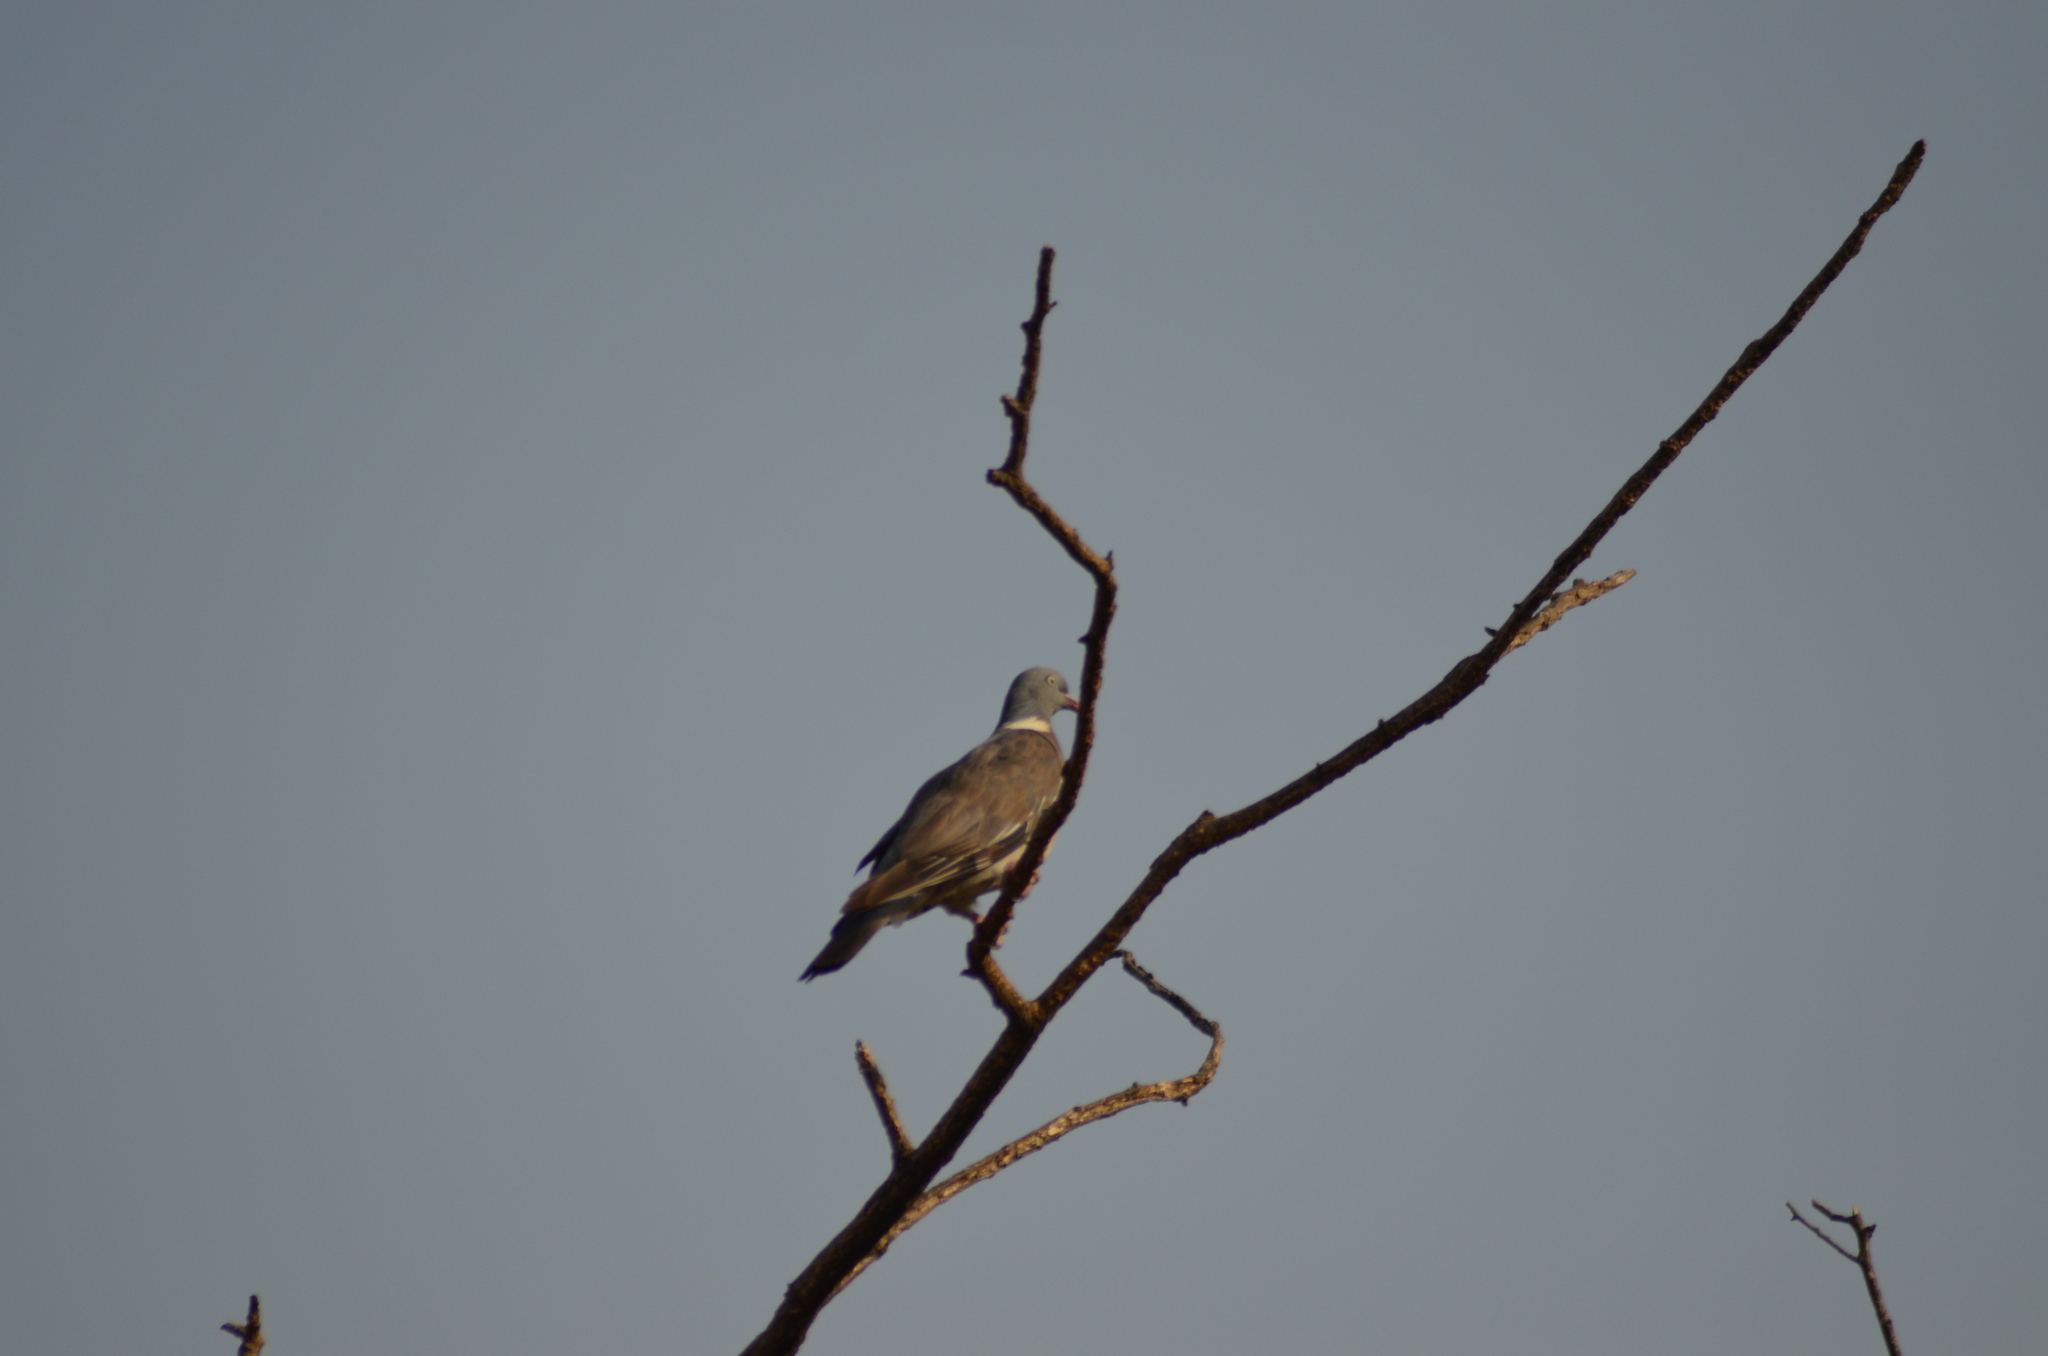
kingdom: Animalia
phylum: Chordata
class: Aves
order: Columbiformes
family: Columbidae
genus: Columba
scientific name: Columba palumbus
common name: Common wood pigeon
